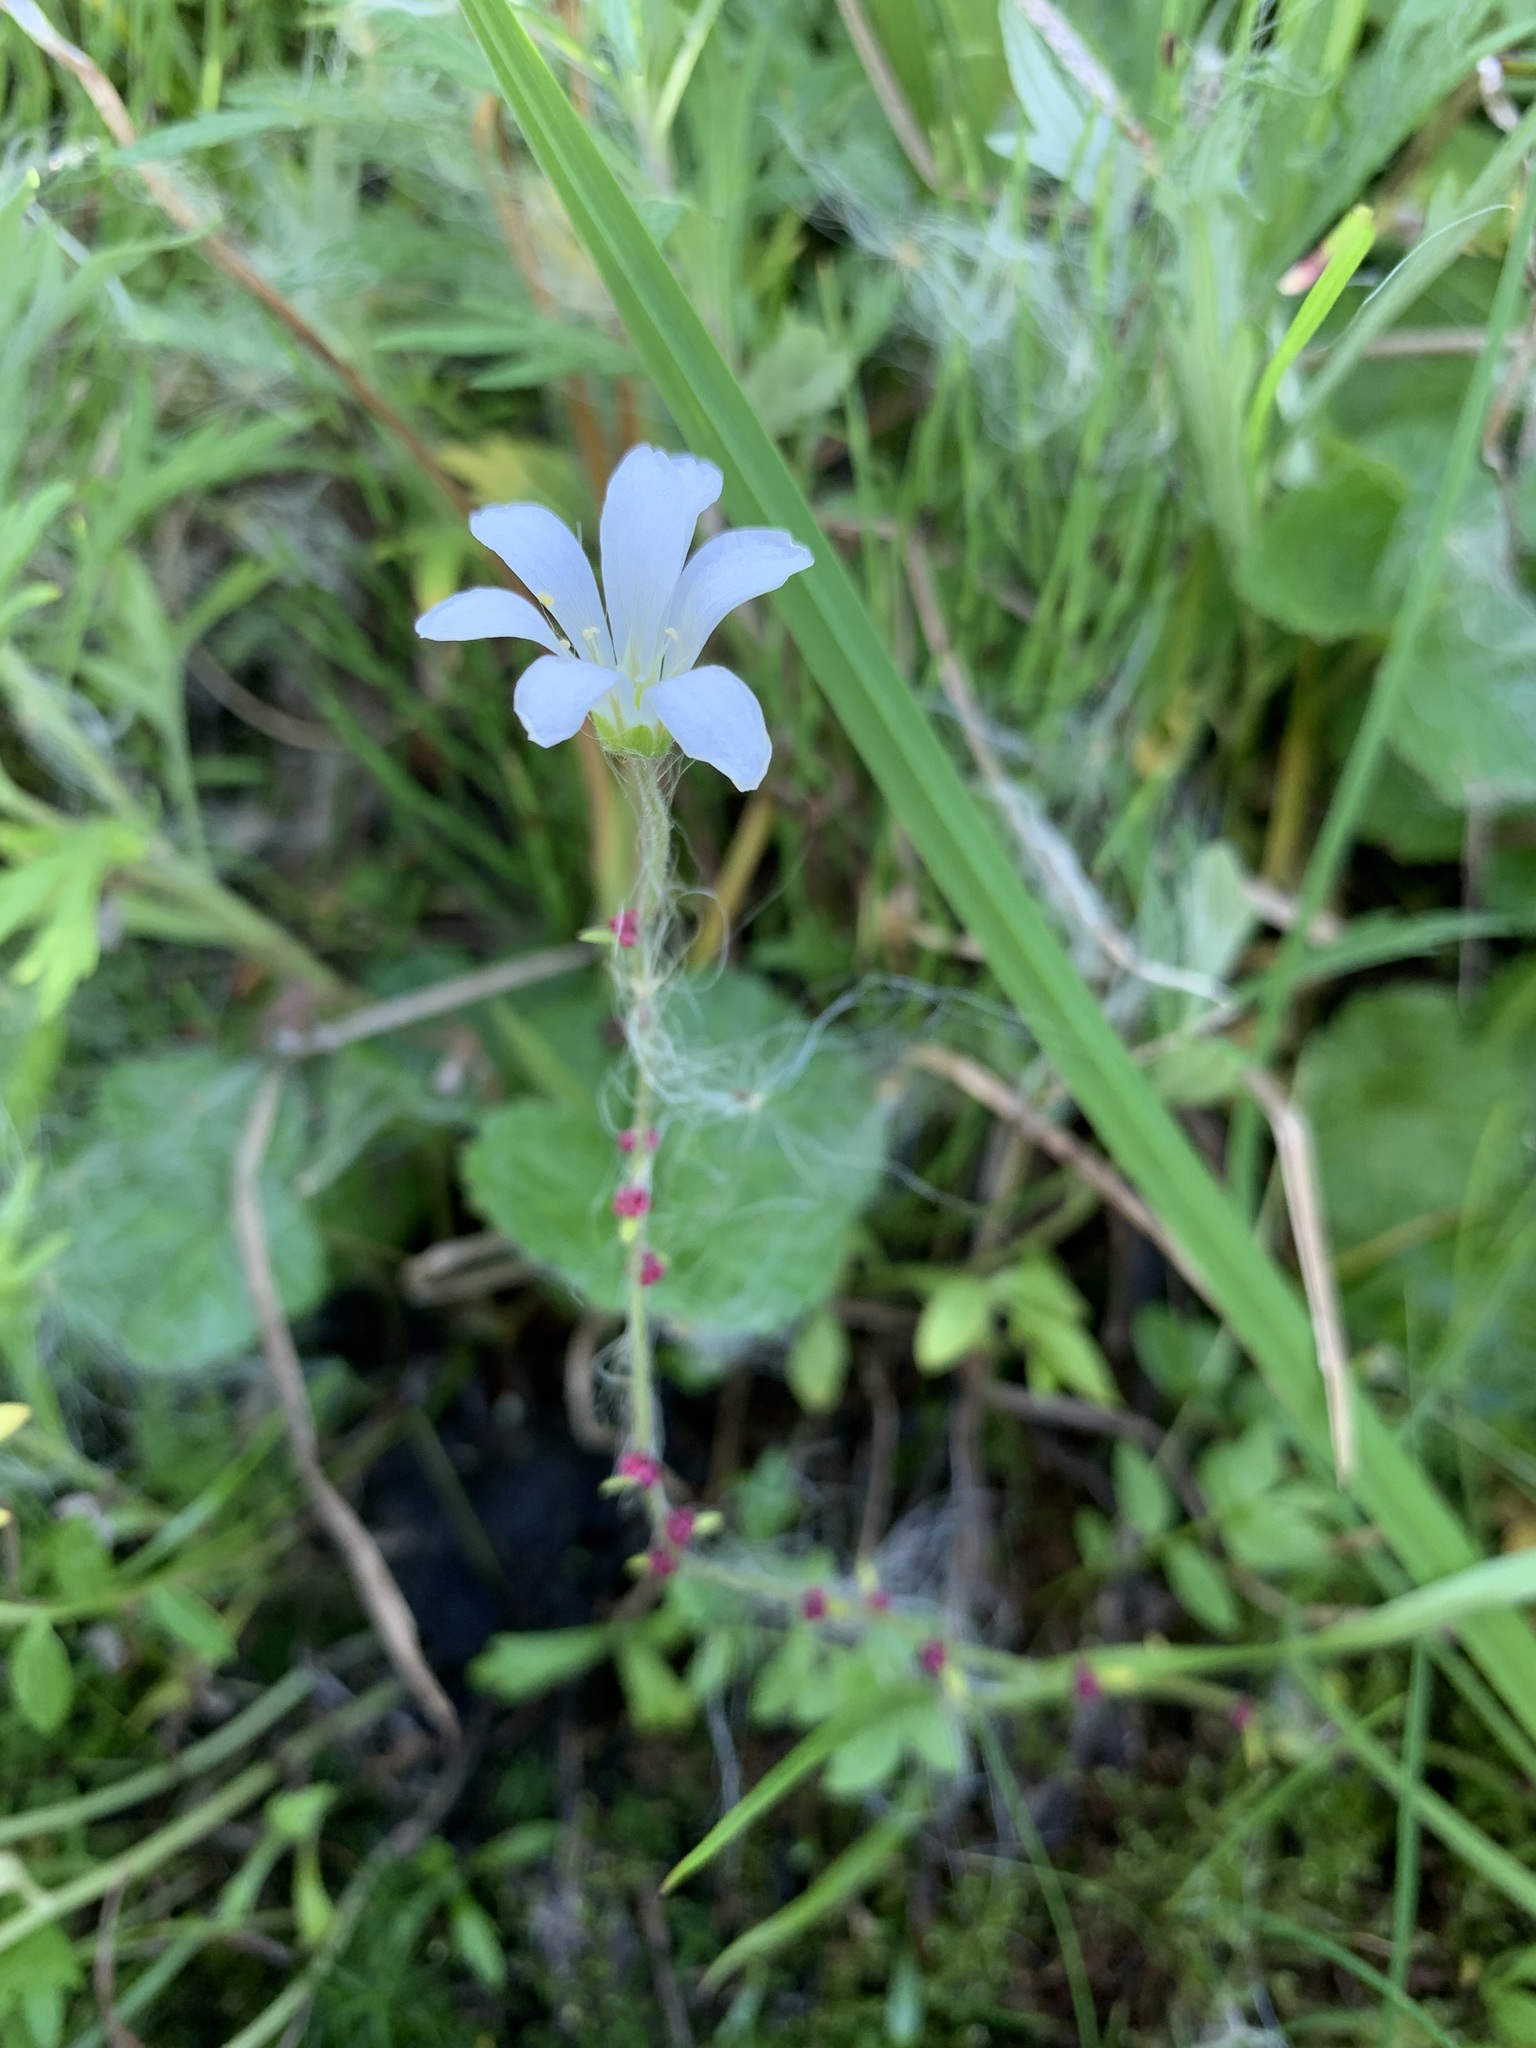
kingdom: Plantae
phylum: Tracheophyta
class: Magnoliopsida
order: Saxifragales
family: Saxifragaceae
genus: Saxifraga
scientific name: Saxifraga cernua
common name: Drooping saxifrage
